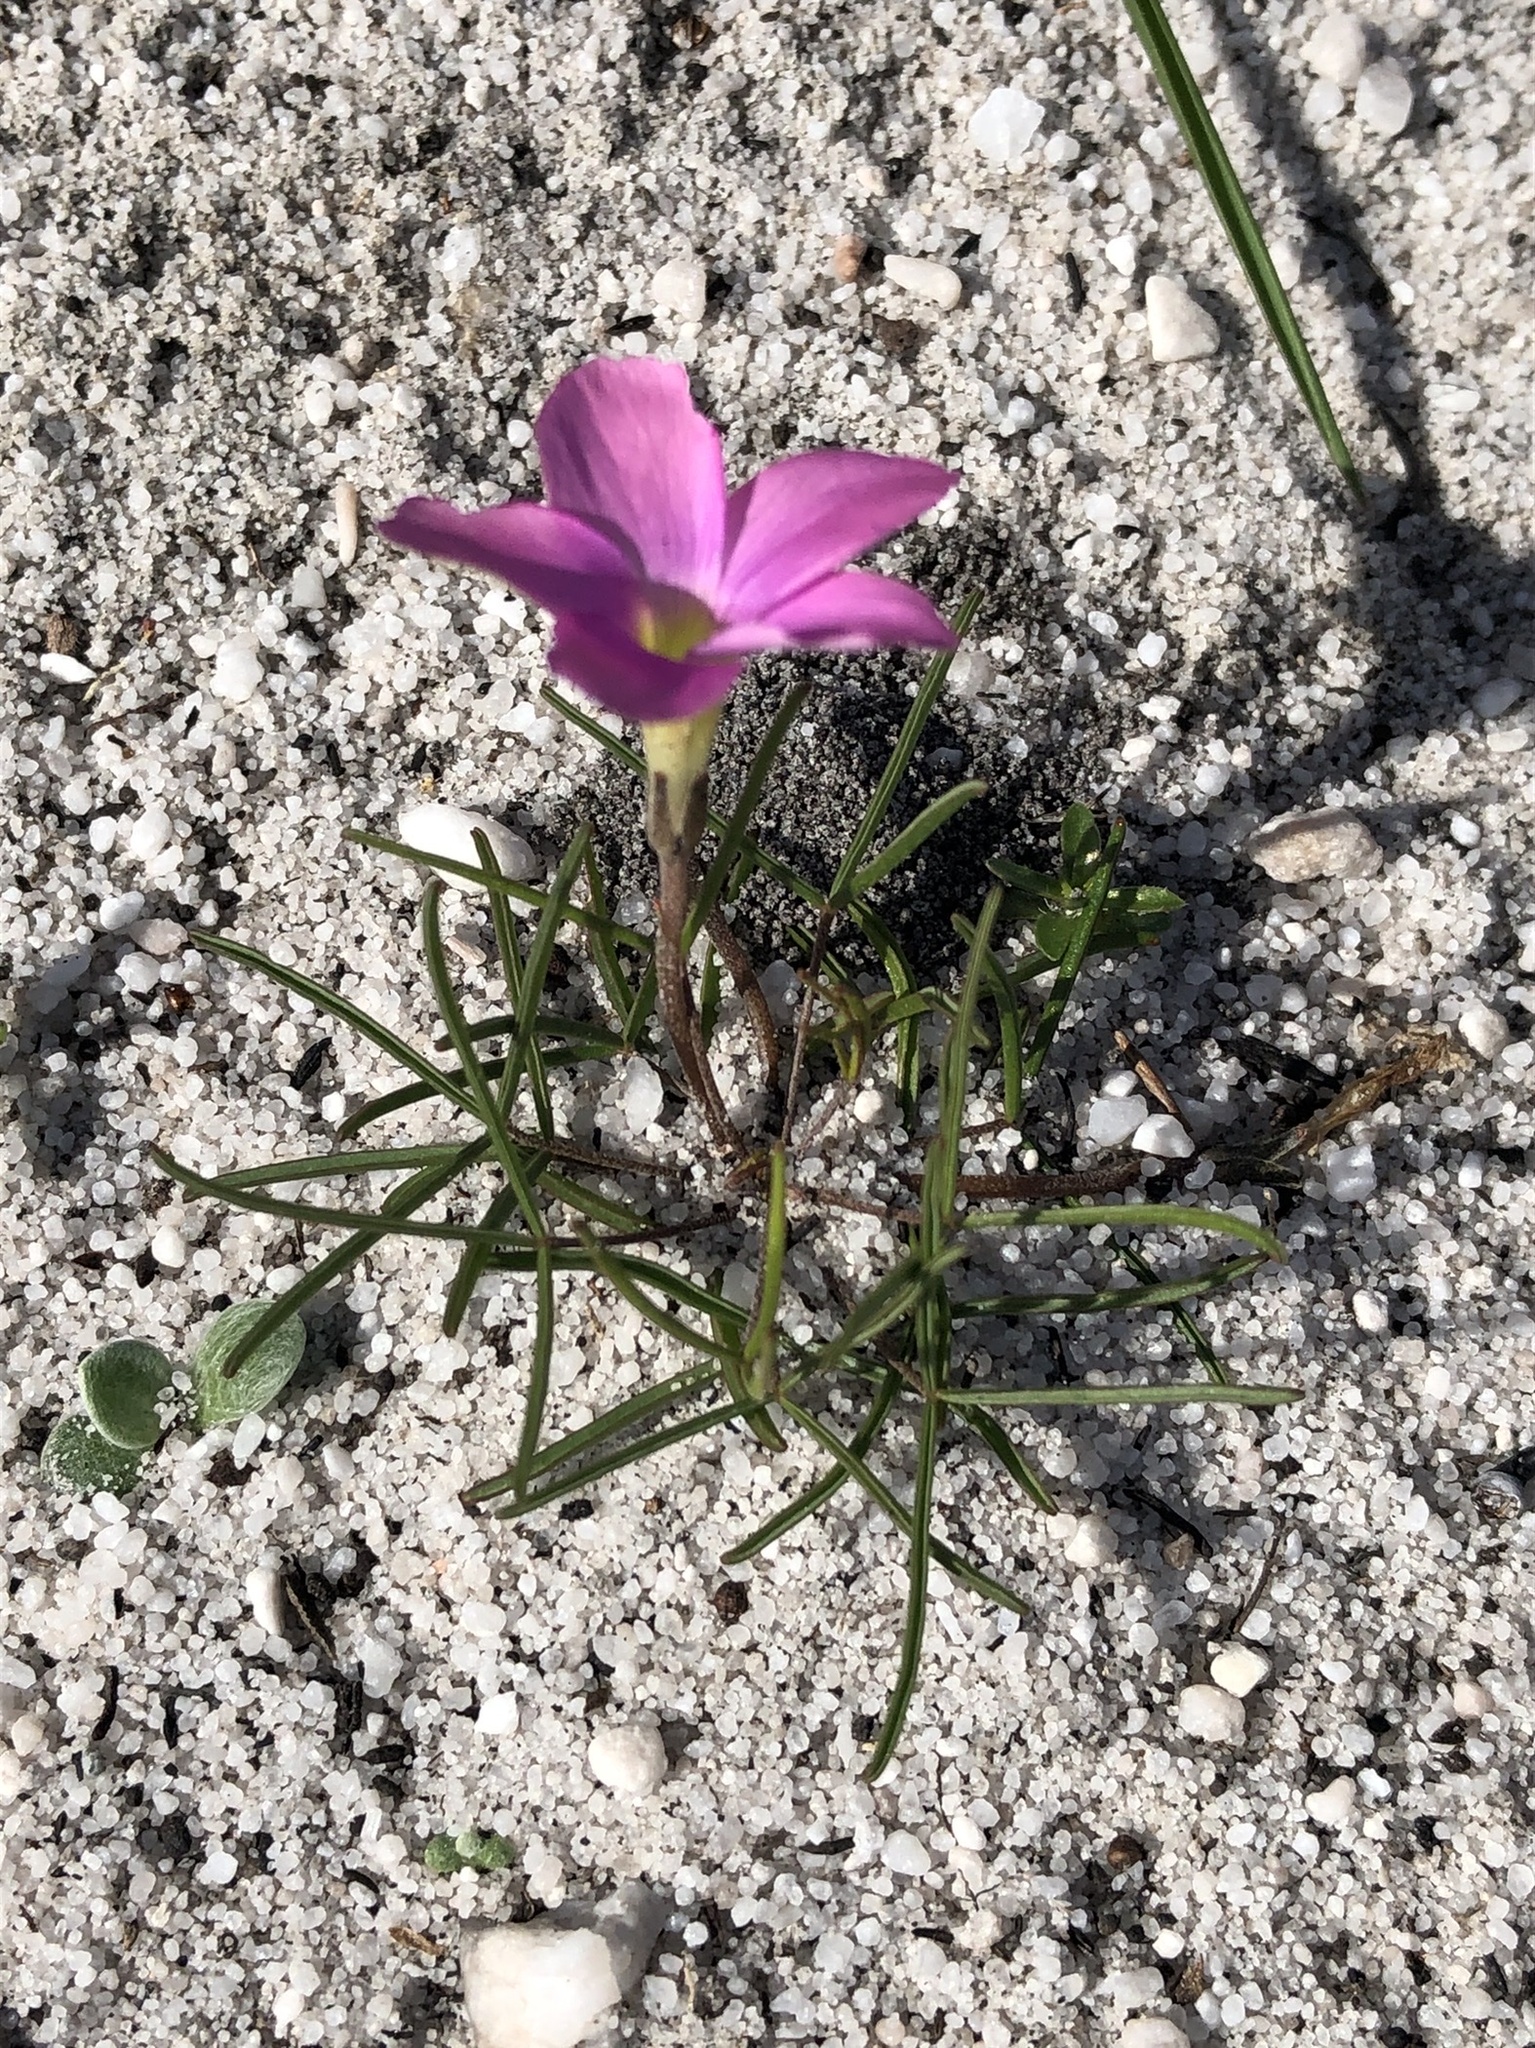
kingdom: Plantae
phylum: Tracheophyta
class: Magnoliopsida
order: Oxalidales
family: Oxalidaceae
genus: Oxalis
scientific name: Oxalis polyphylla
